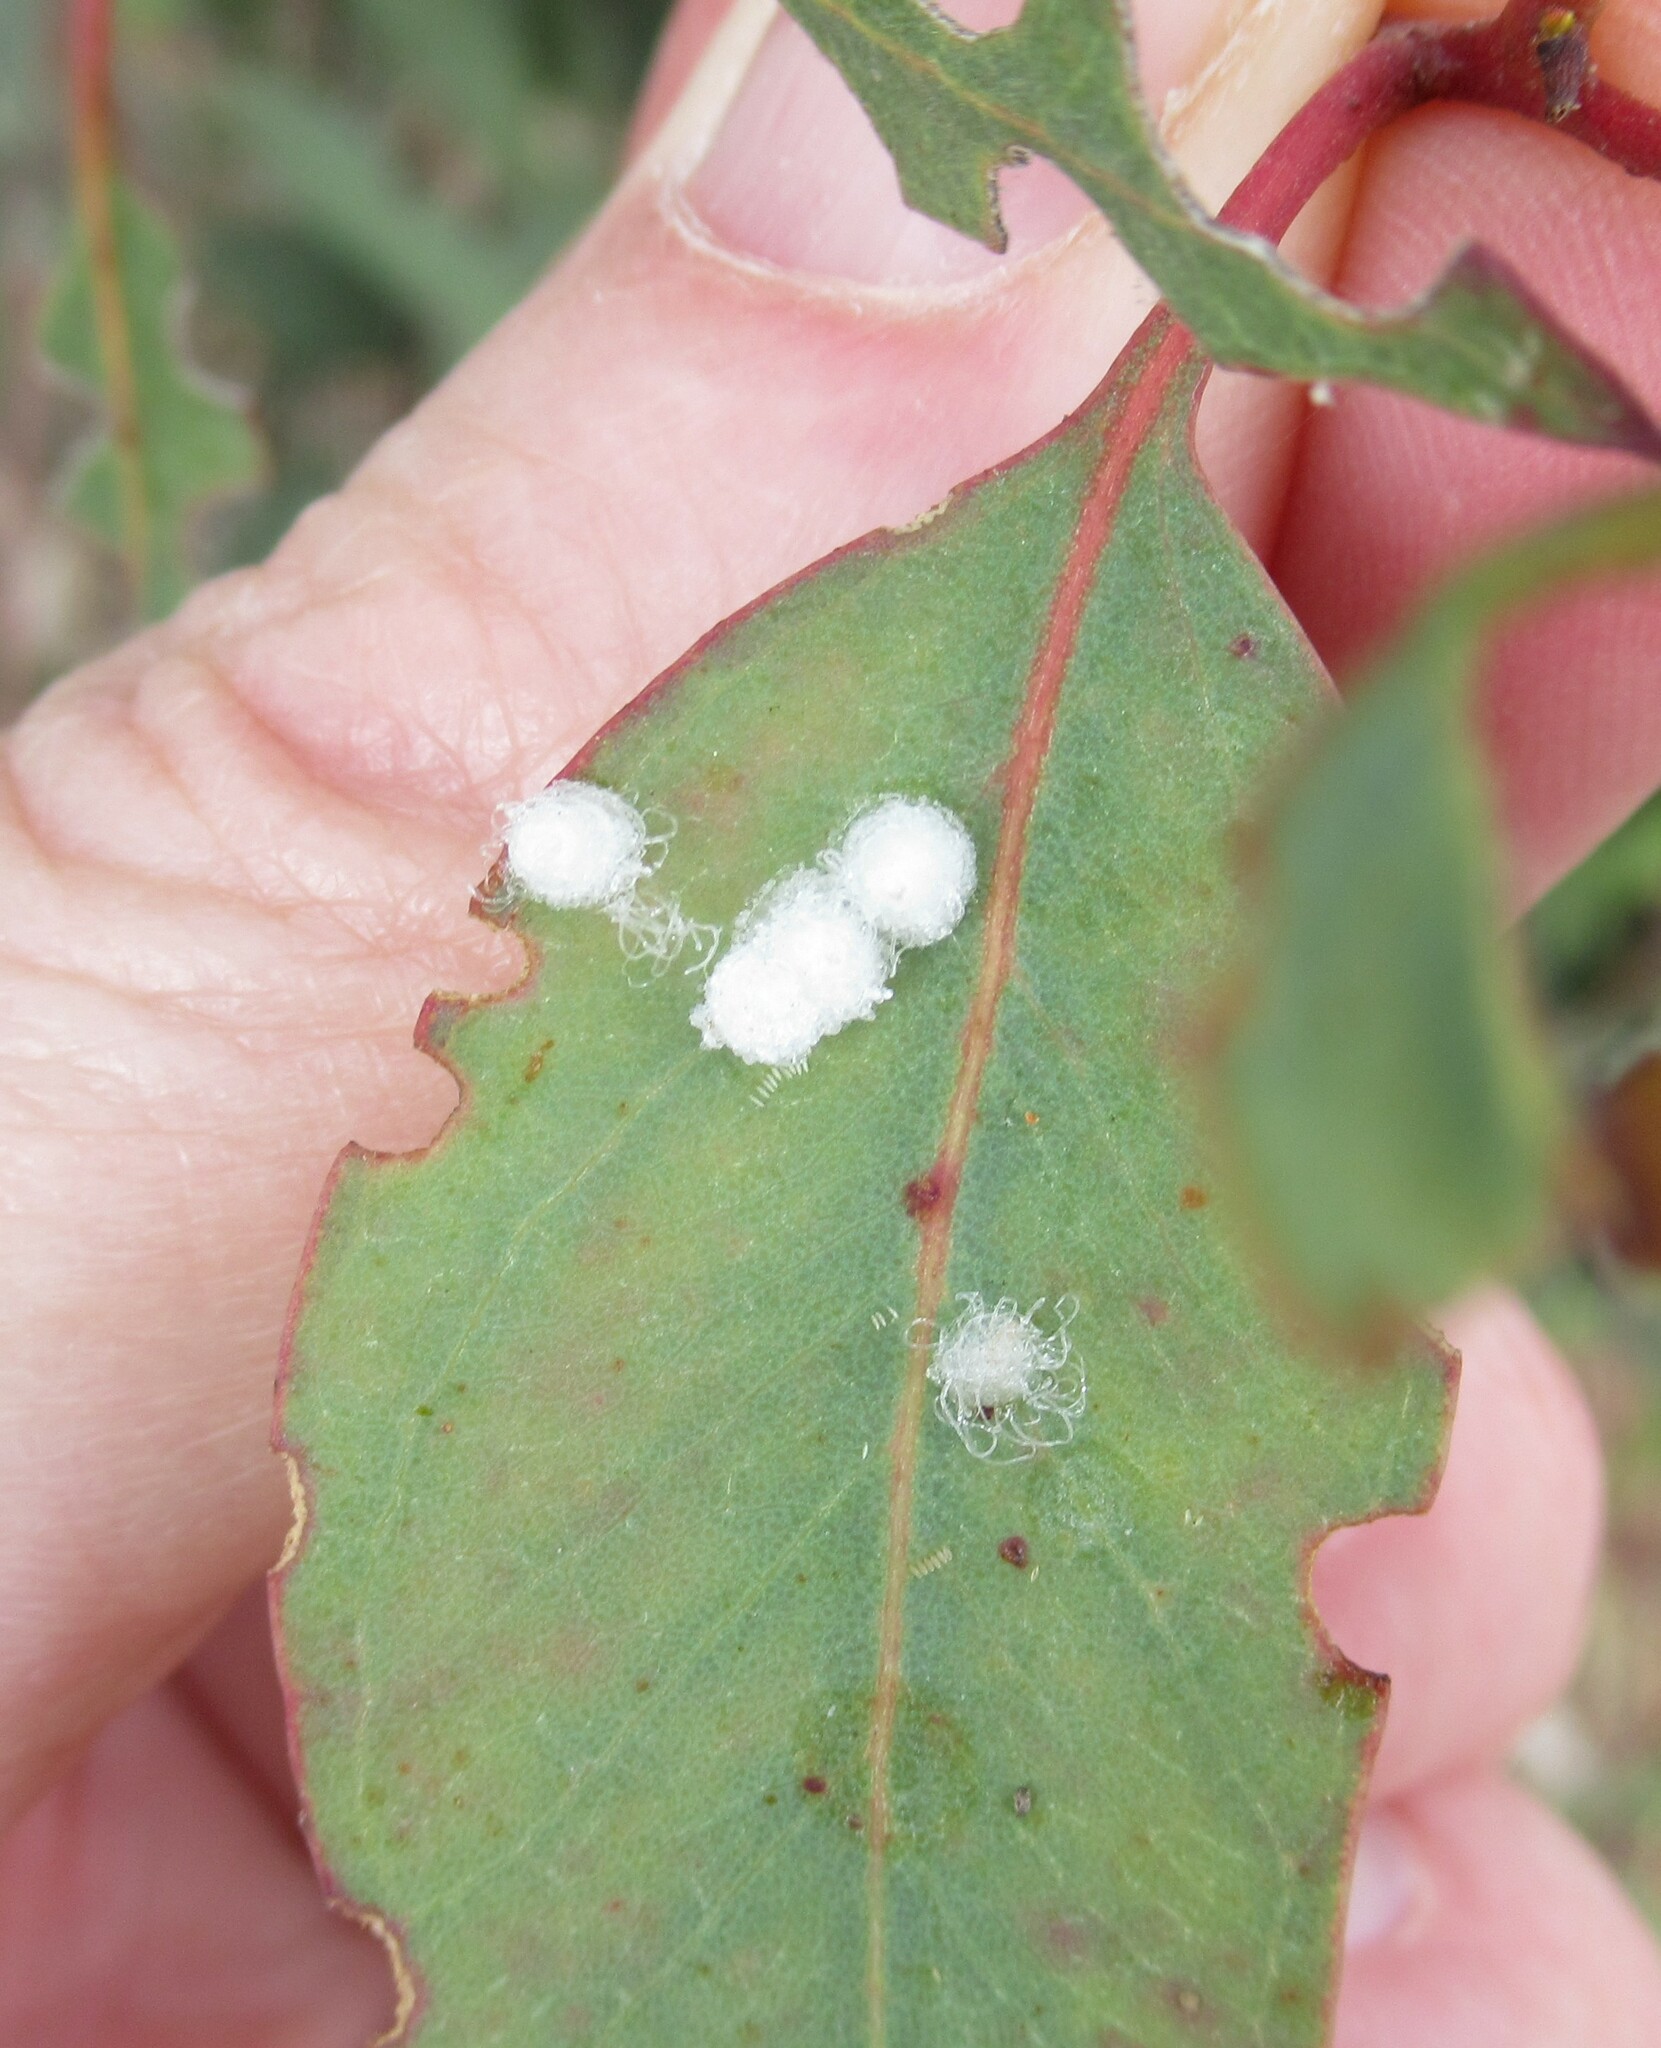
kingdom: Animalia
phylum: Arthropoda
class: Insecta
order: Hemiptera
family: Aphalaridae
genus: Glycaspis
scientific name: Glycaspis brimblecombei
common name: Red gum lerp psyllid
